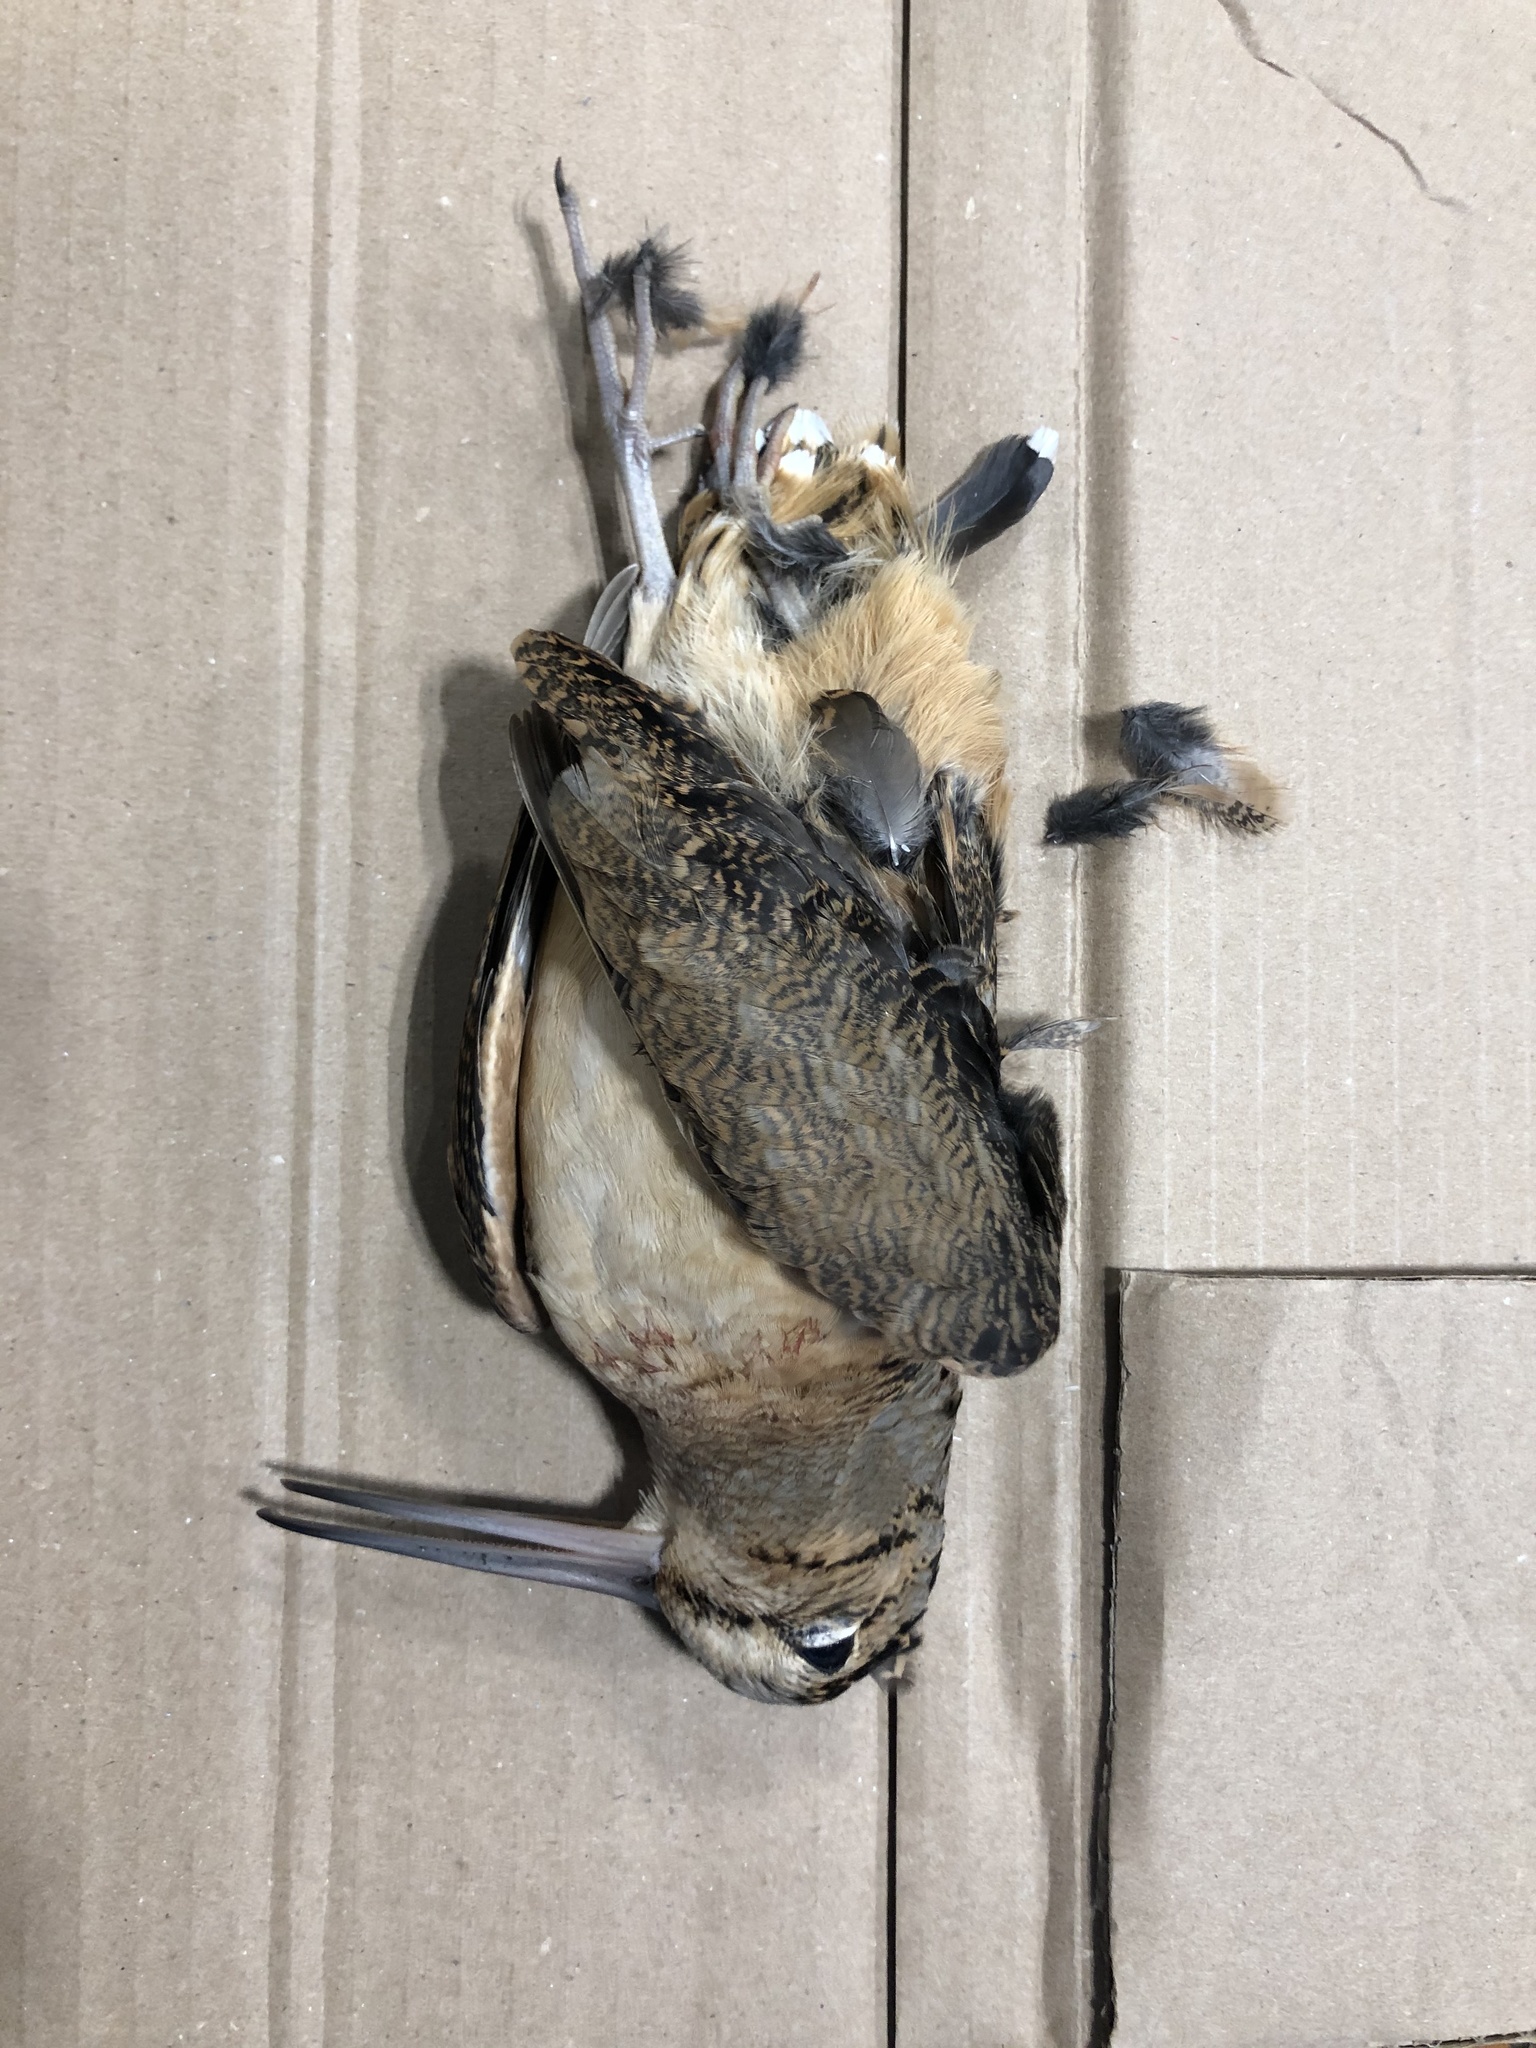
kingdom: Animalia
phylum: Chordata
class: Aves
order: Charadriiformes
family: Scolopacidae
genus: Scolopax
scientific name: Scolopax minor
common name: American woodcock
